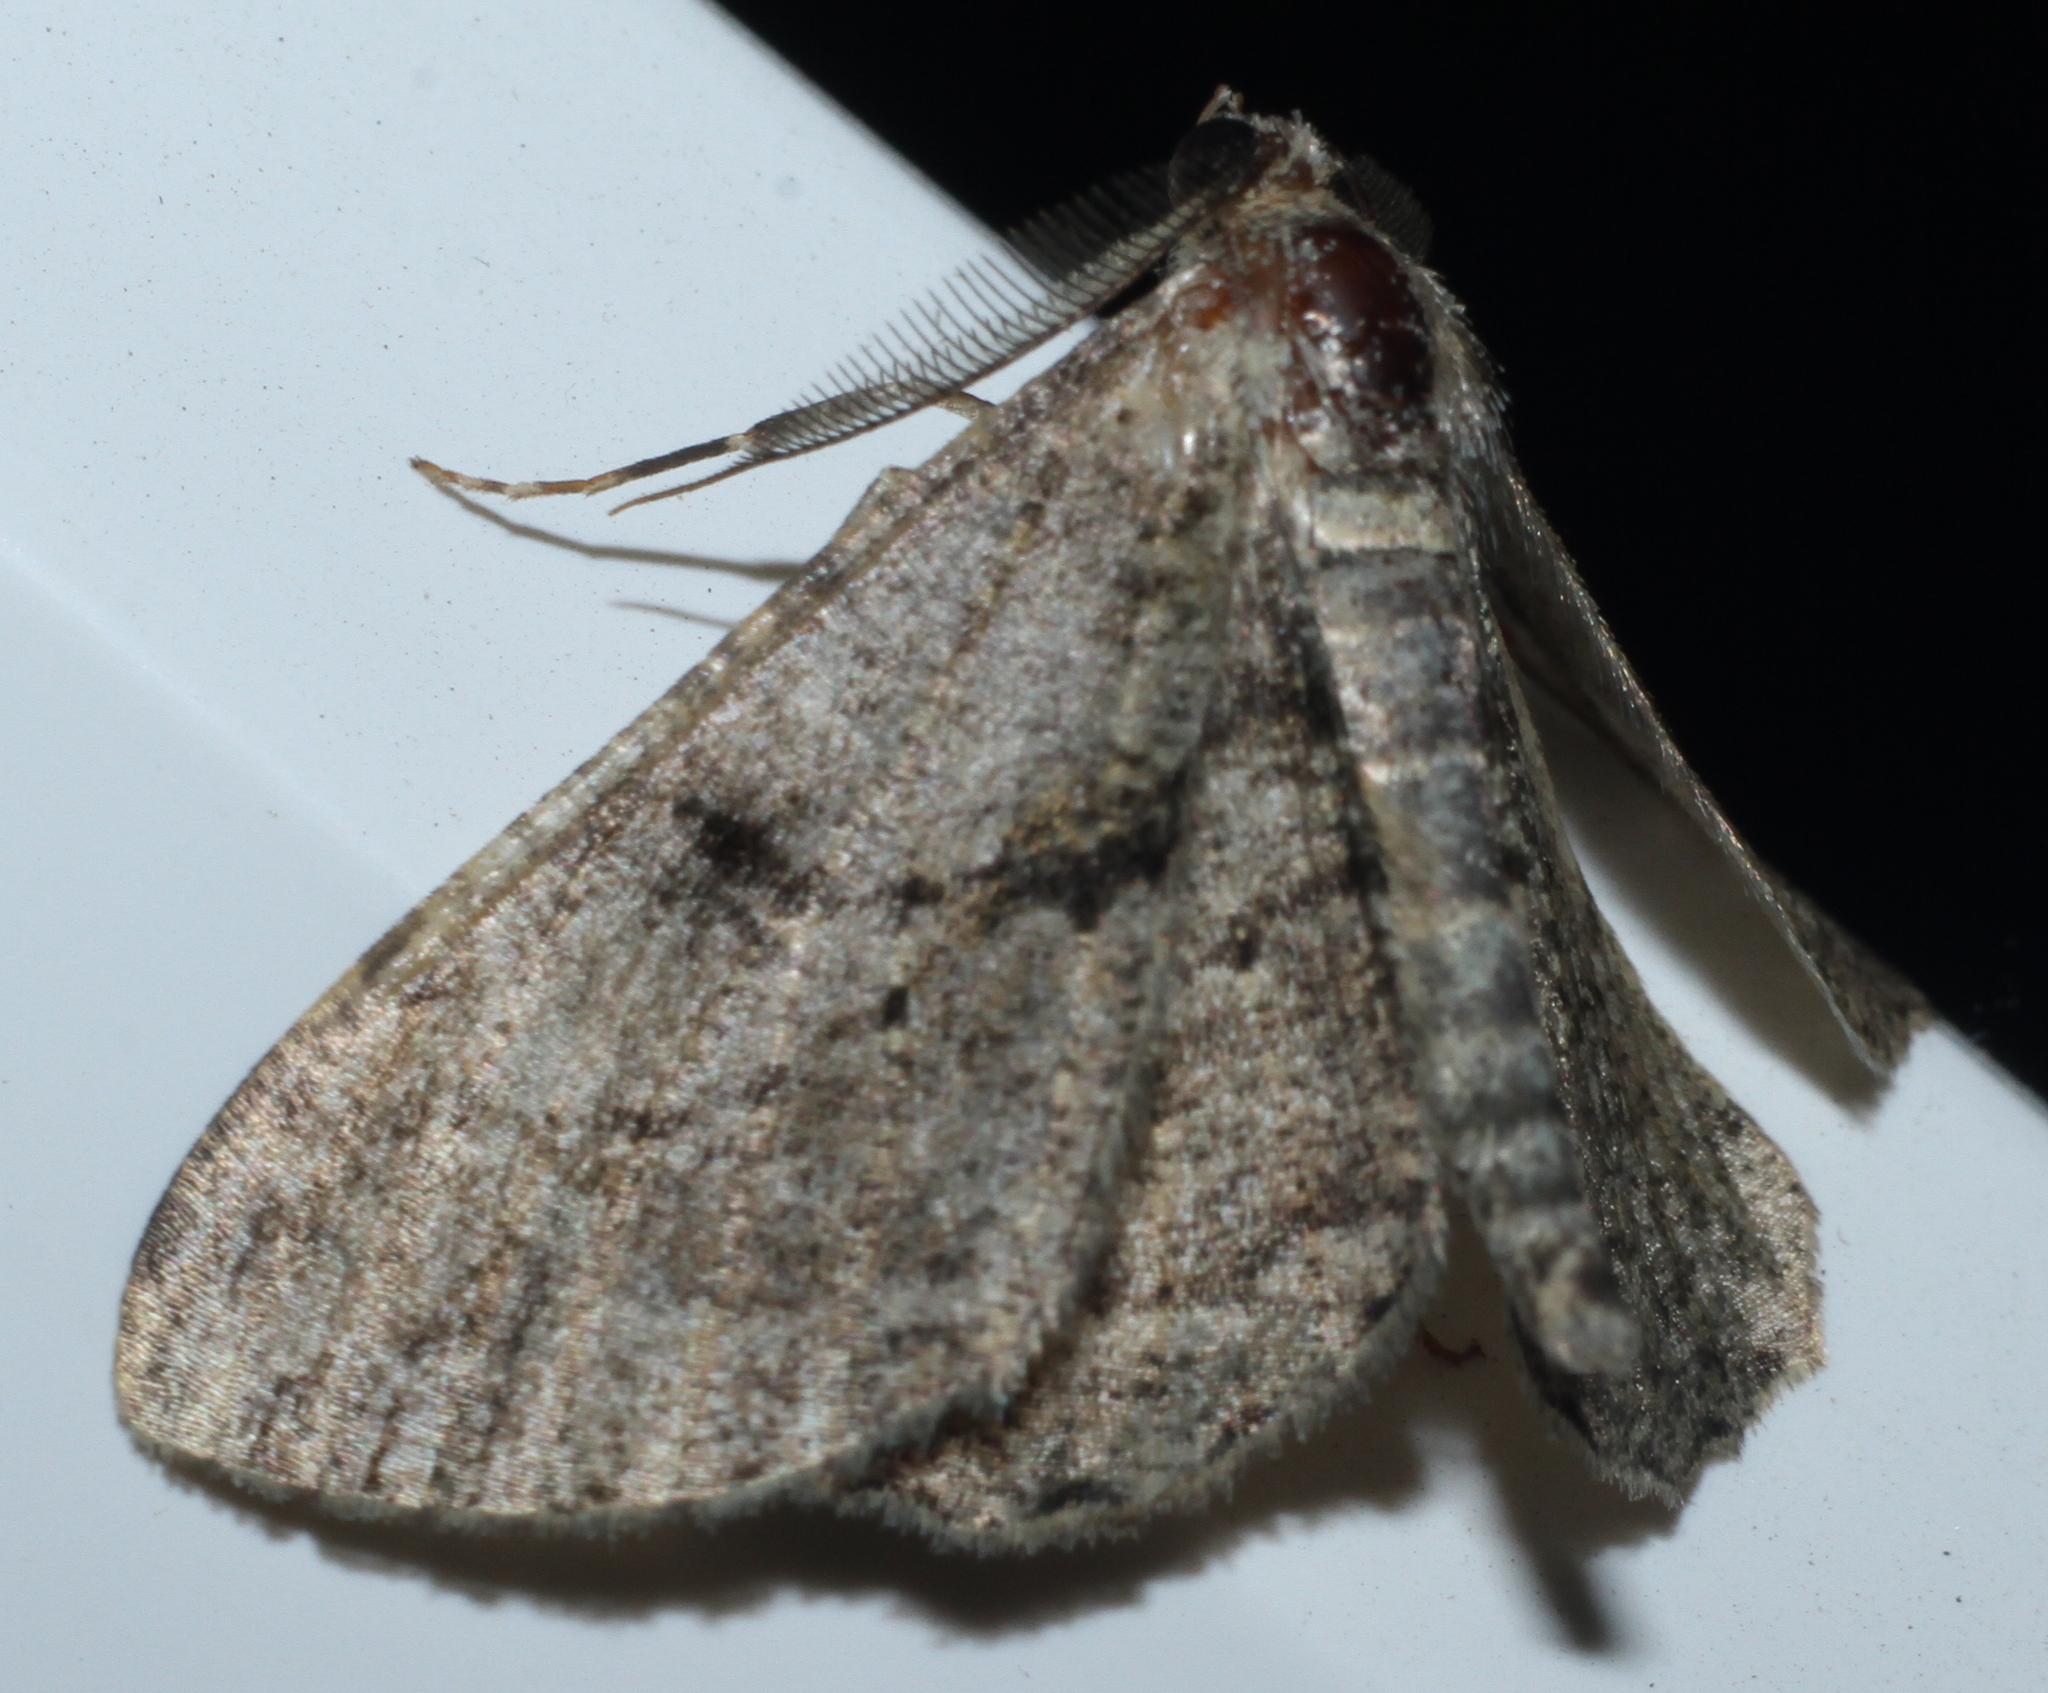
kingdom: Animalia
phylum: Arthropoda
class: Insecta
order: Lepidoptera
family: Geometridae
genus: Peribatodes
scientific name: Peribatodes rhomboidaria
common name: Willow beauty
